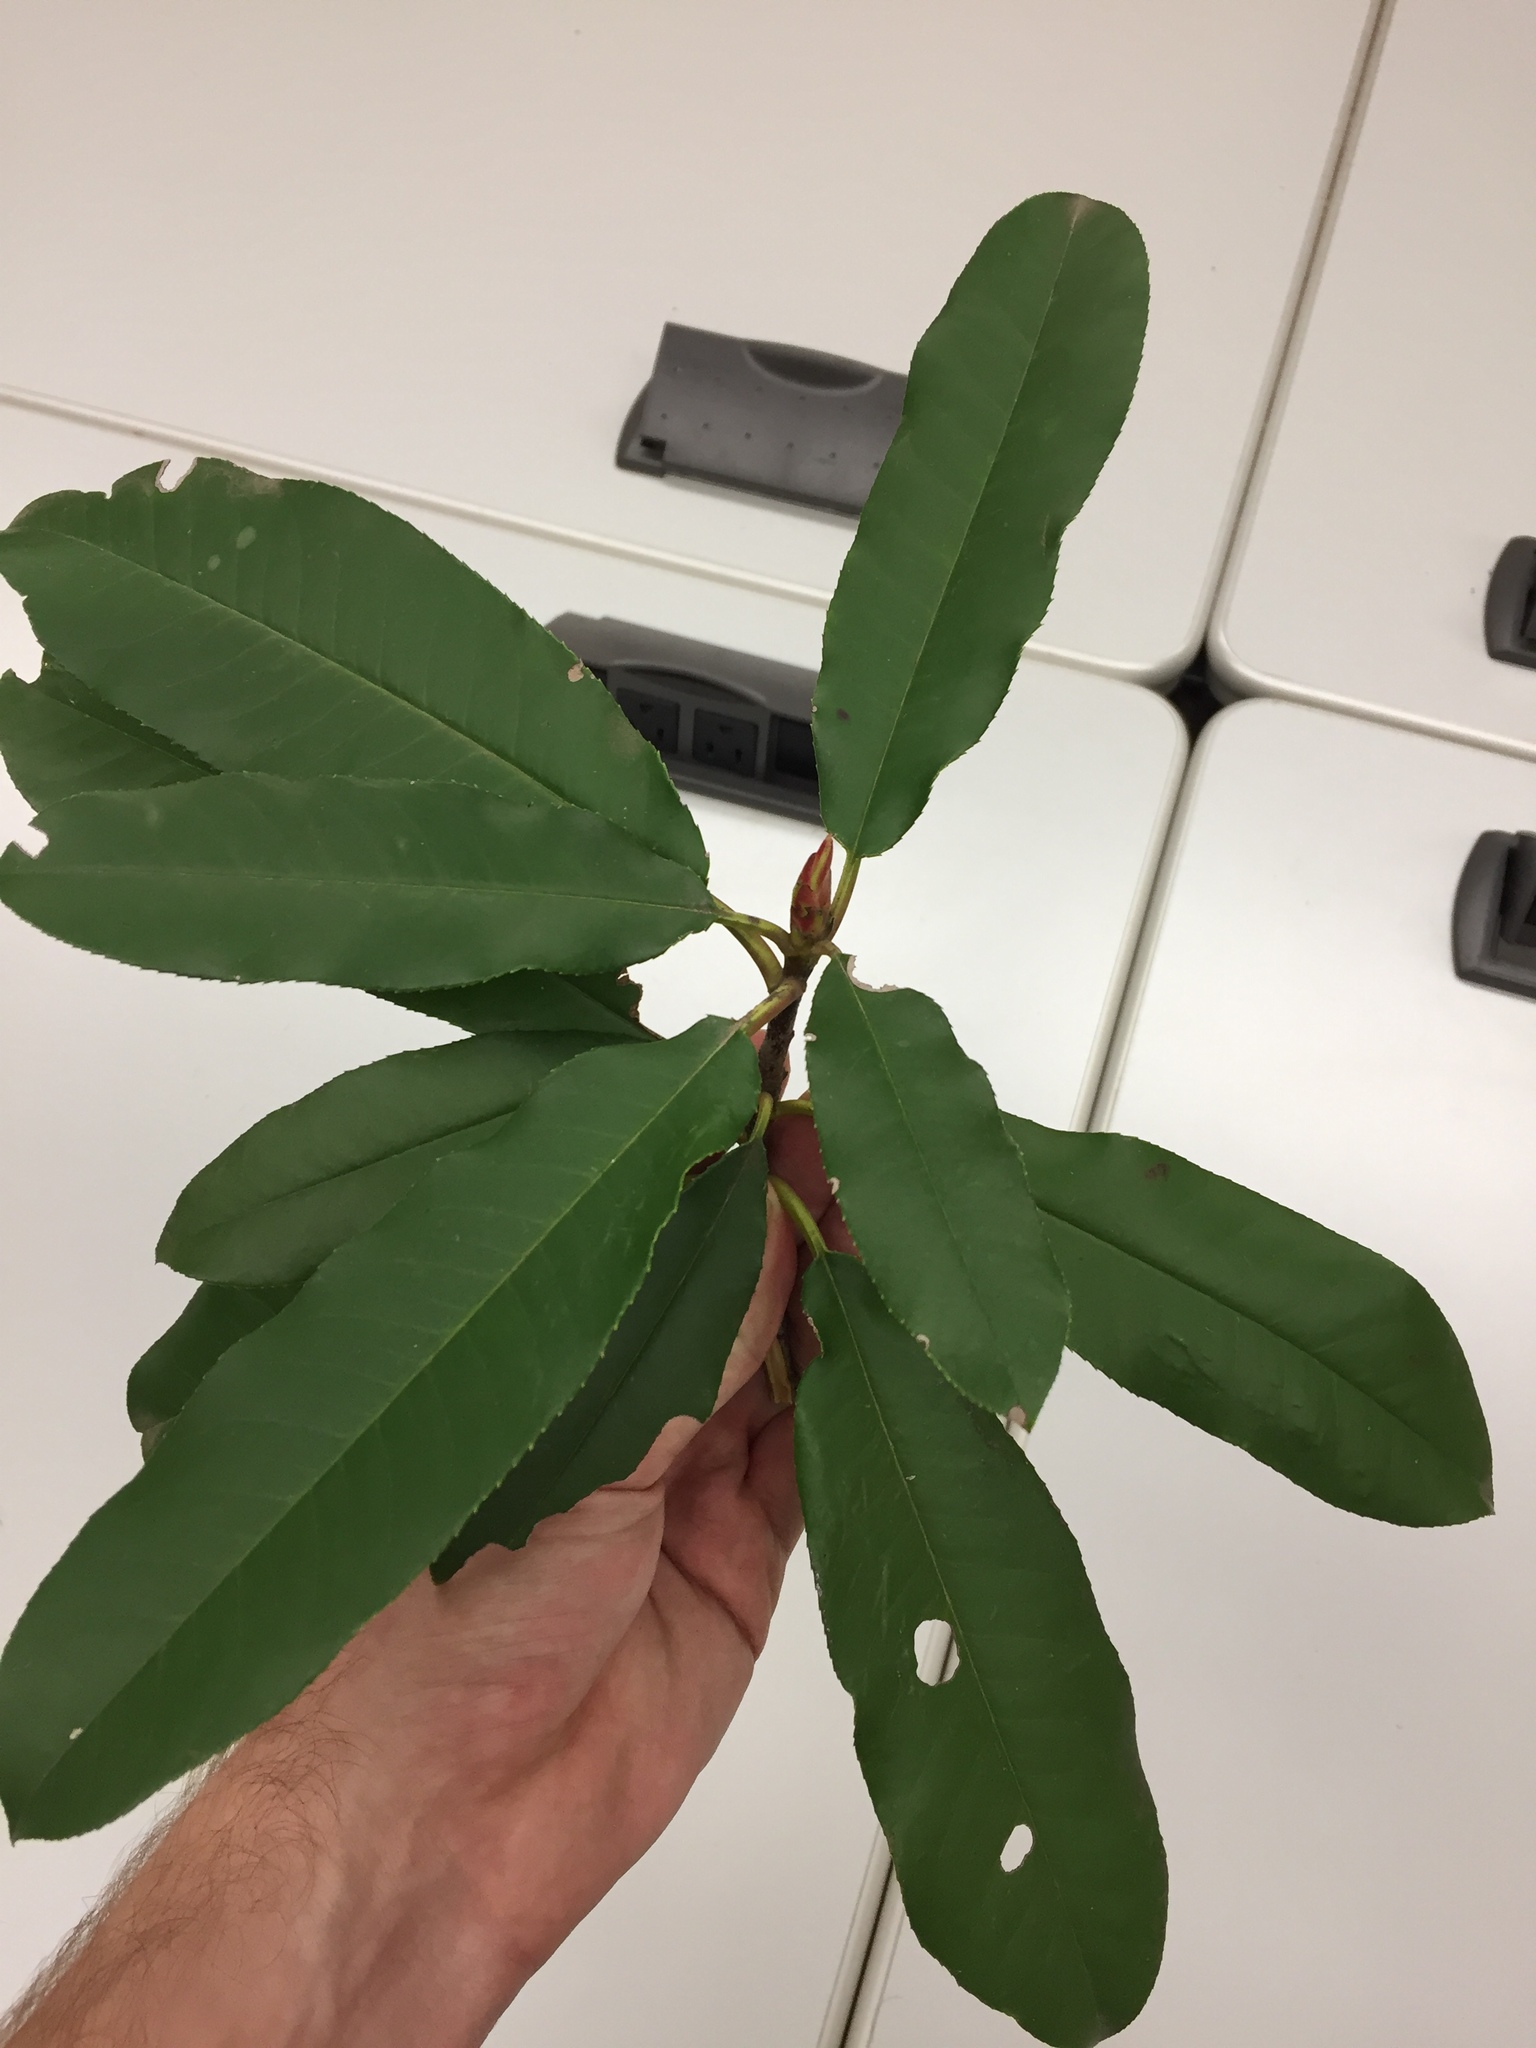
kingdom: Plantae
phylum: Tracheophyta
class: Magnoliopsida
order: Rosales
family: Rosaceae
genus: Photinia
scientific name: Photinia serratifolia
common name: Taiwanese photinia
